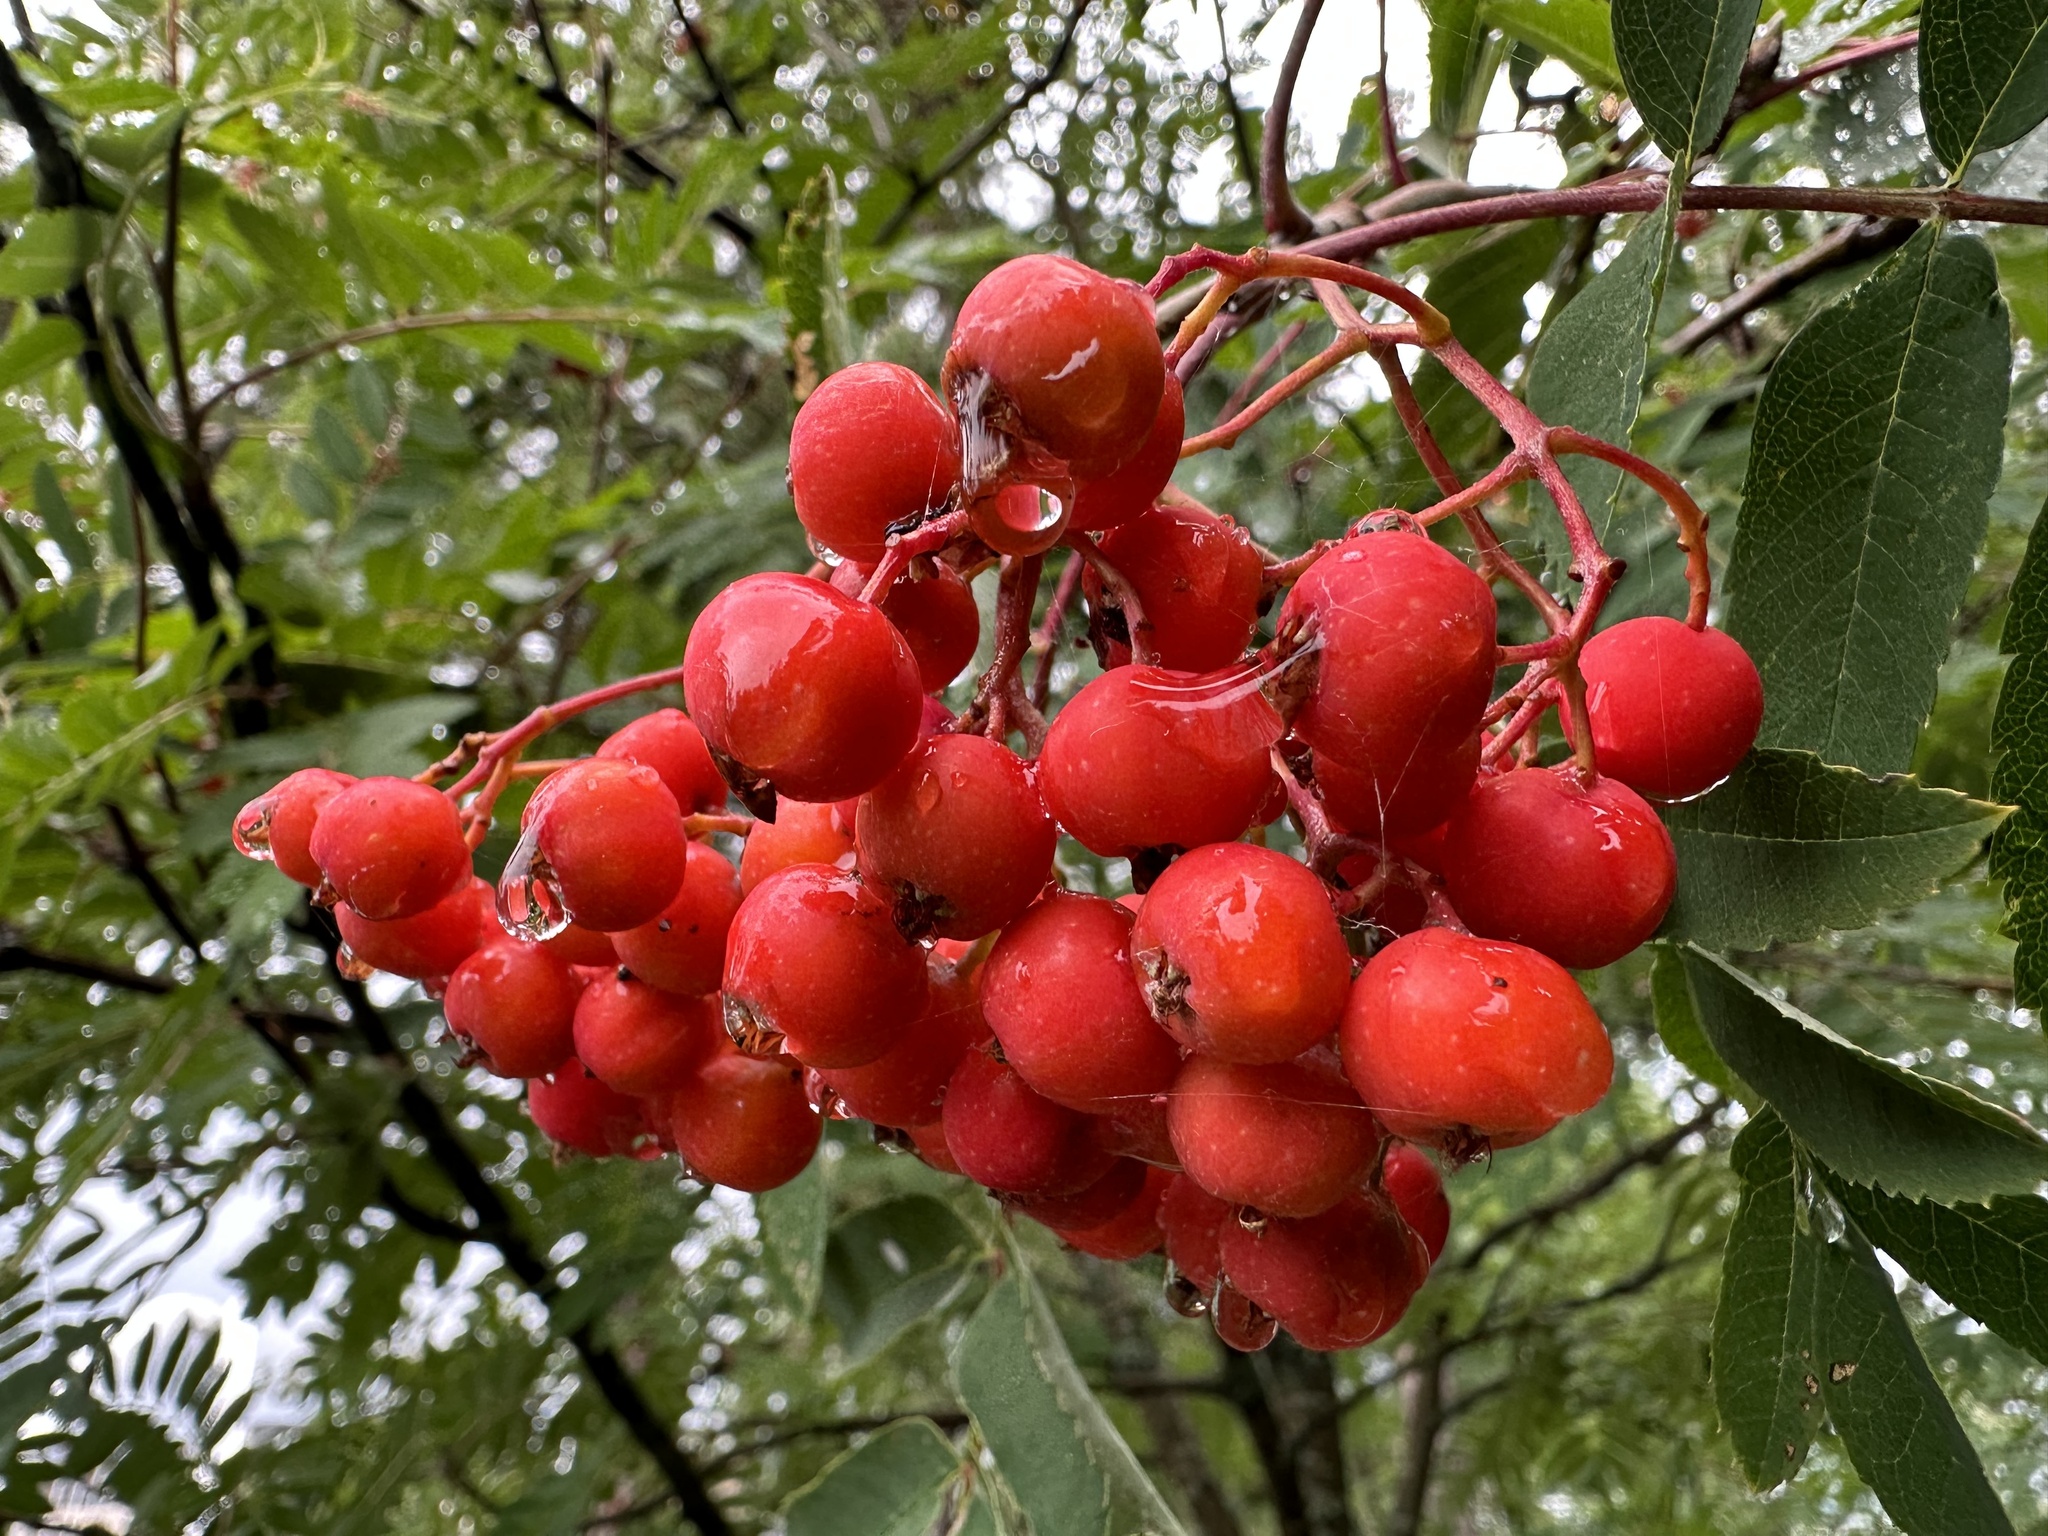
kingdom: Plantae
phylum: Tracheophyta
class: Magnoliopsida
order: Rosales
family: Rosaceae
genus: Sorbus
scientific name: Sorbus aucuparia
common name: Rowan
